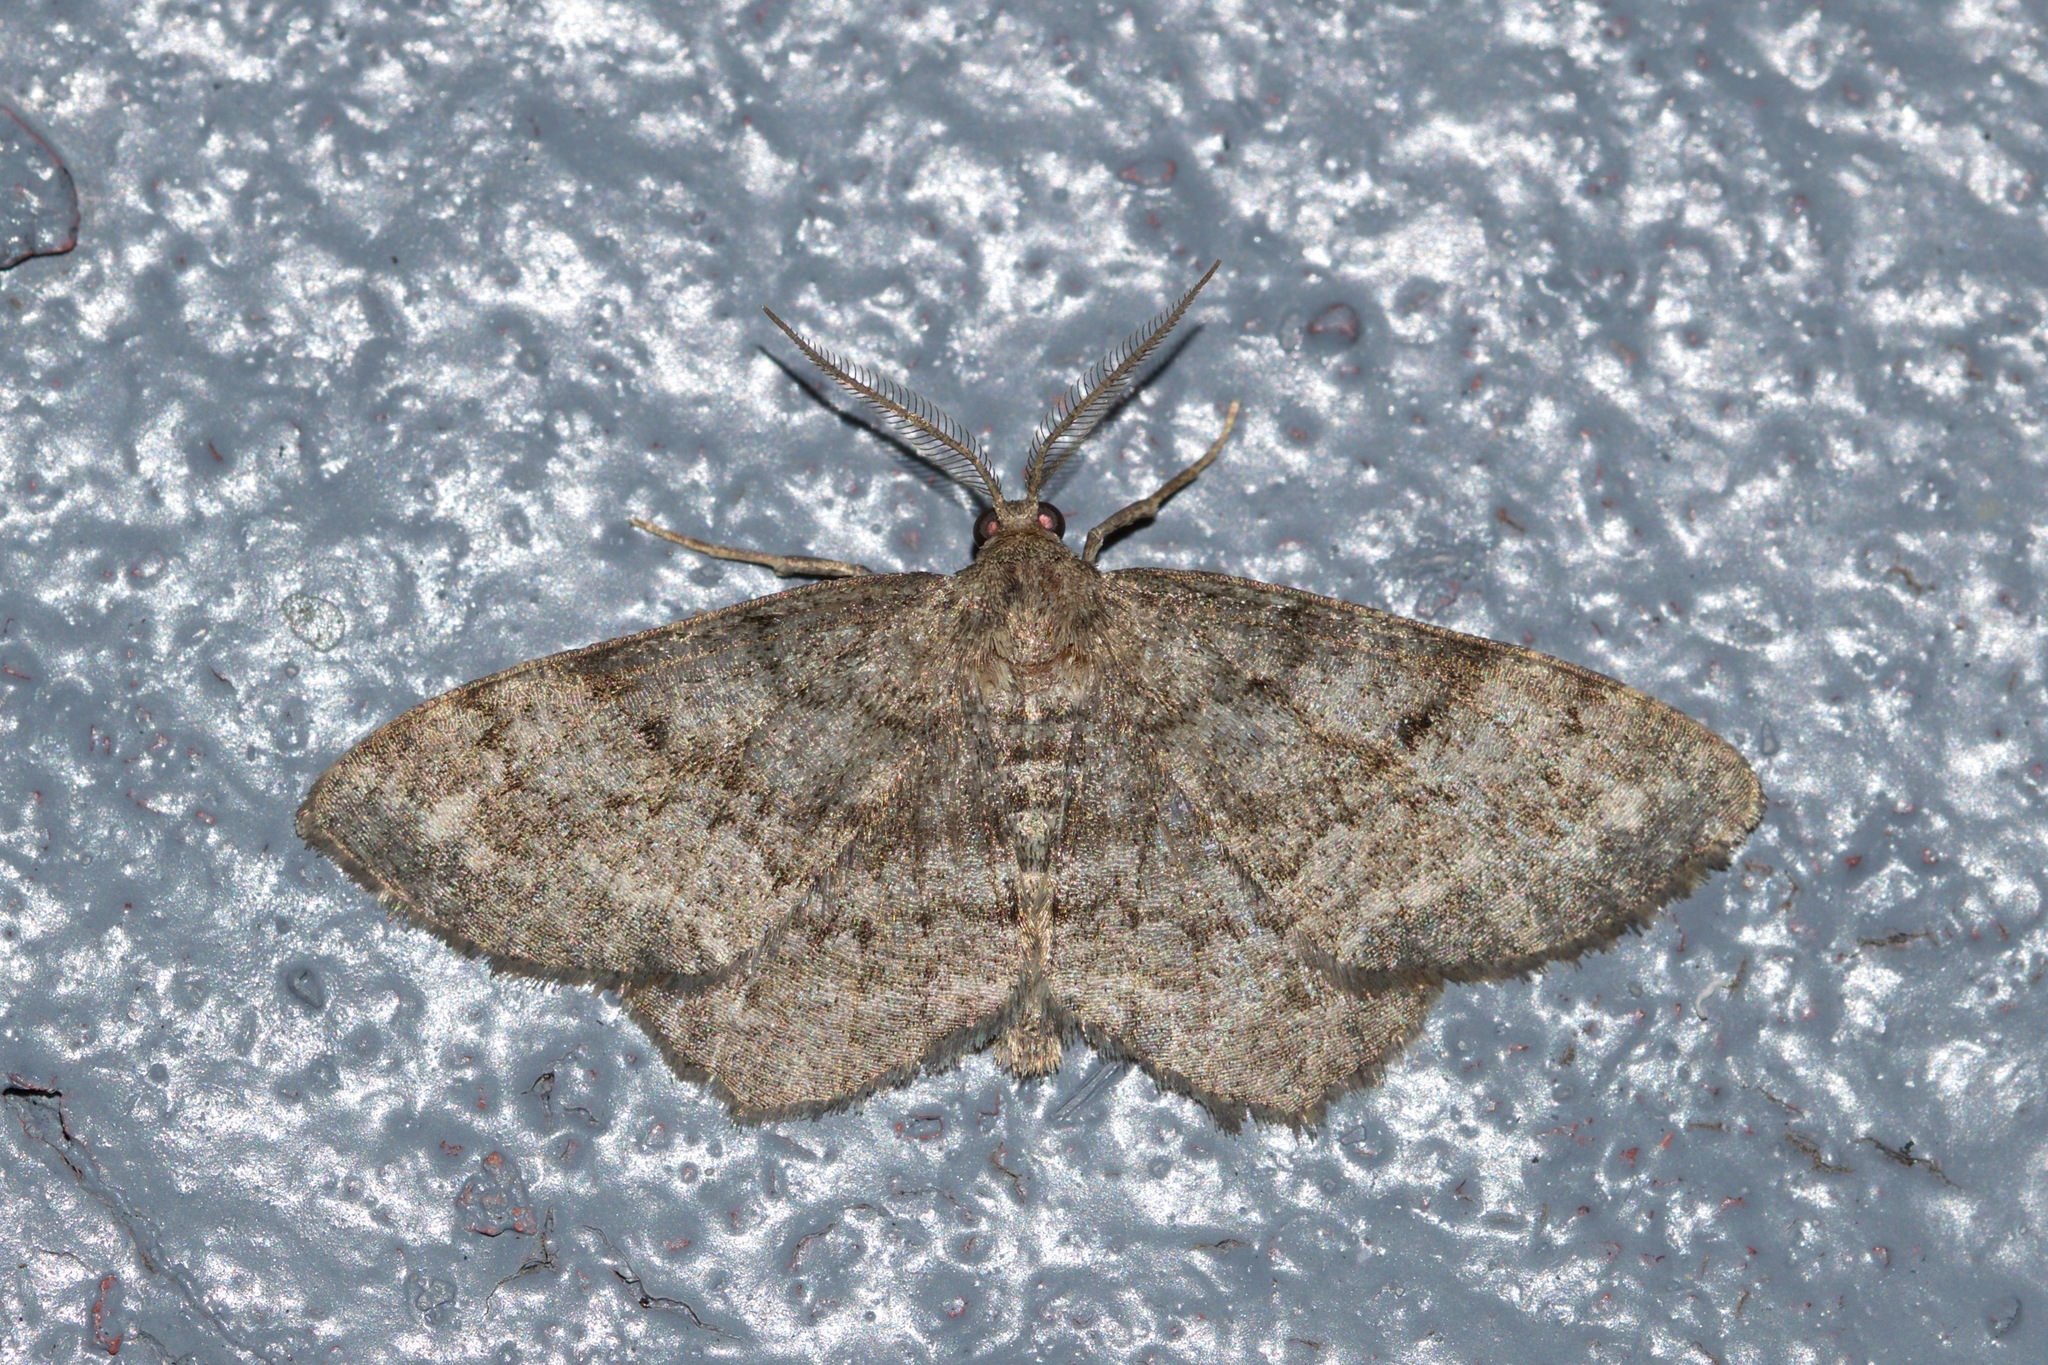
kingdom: Animalia
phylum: Arthropoda
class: Insecta
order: Lepidoptera
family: Geometridae
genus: Hypagyrtis
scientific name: Hypagyrtis piniata
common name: Pine measuringworm
